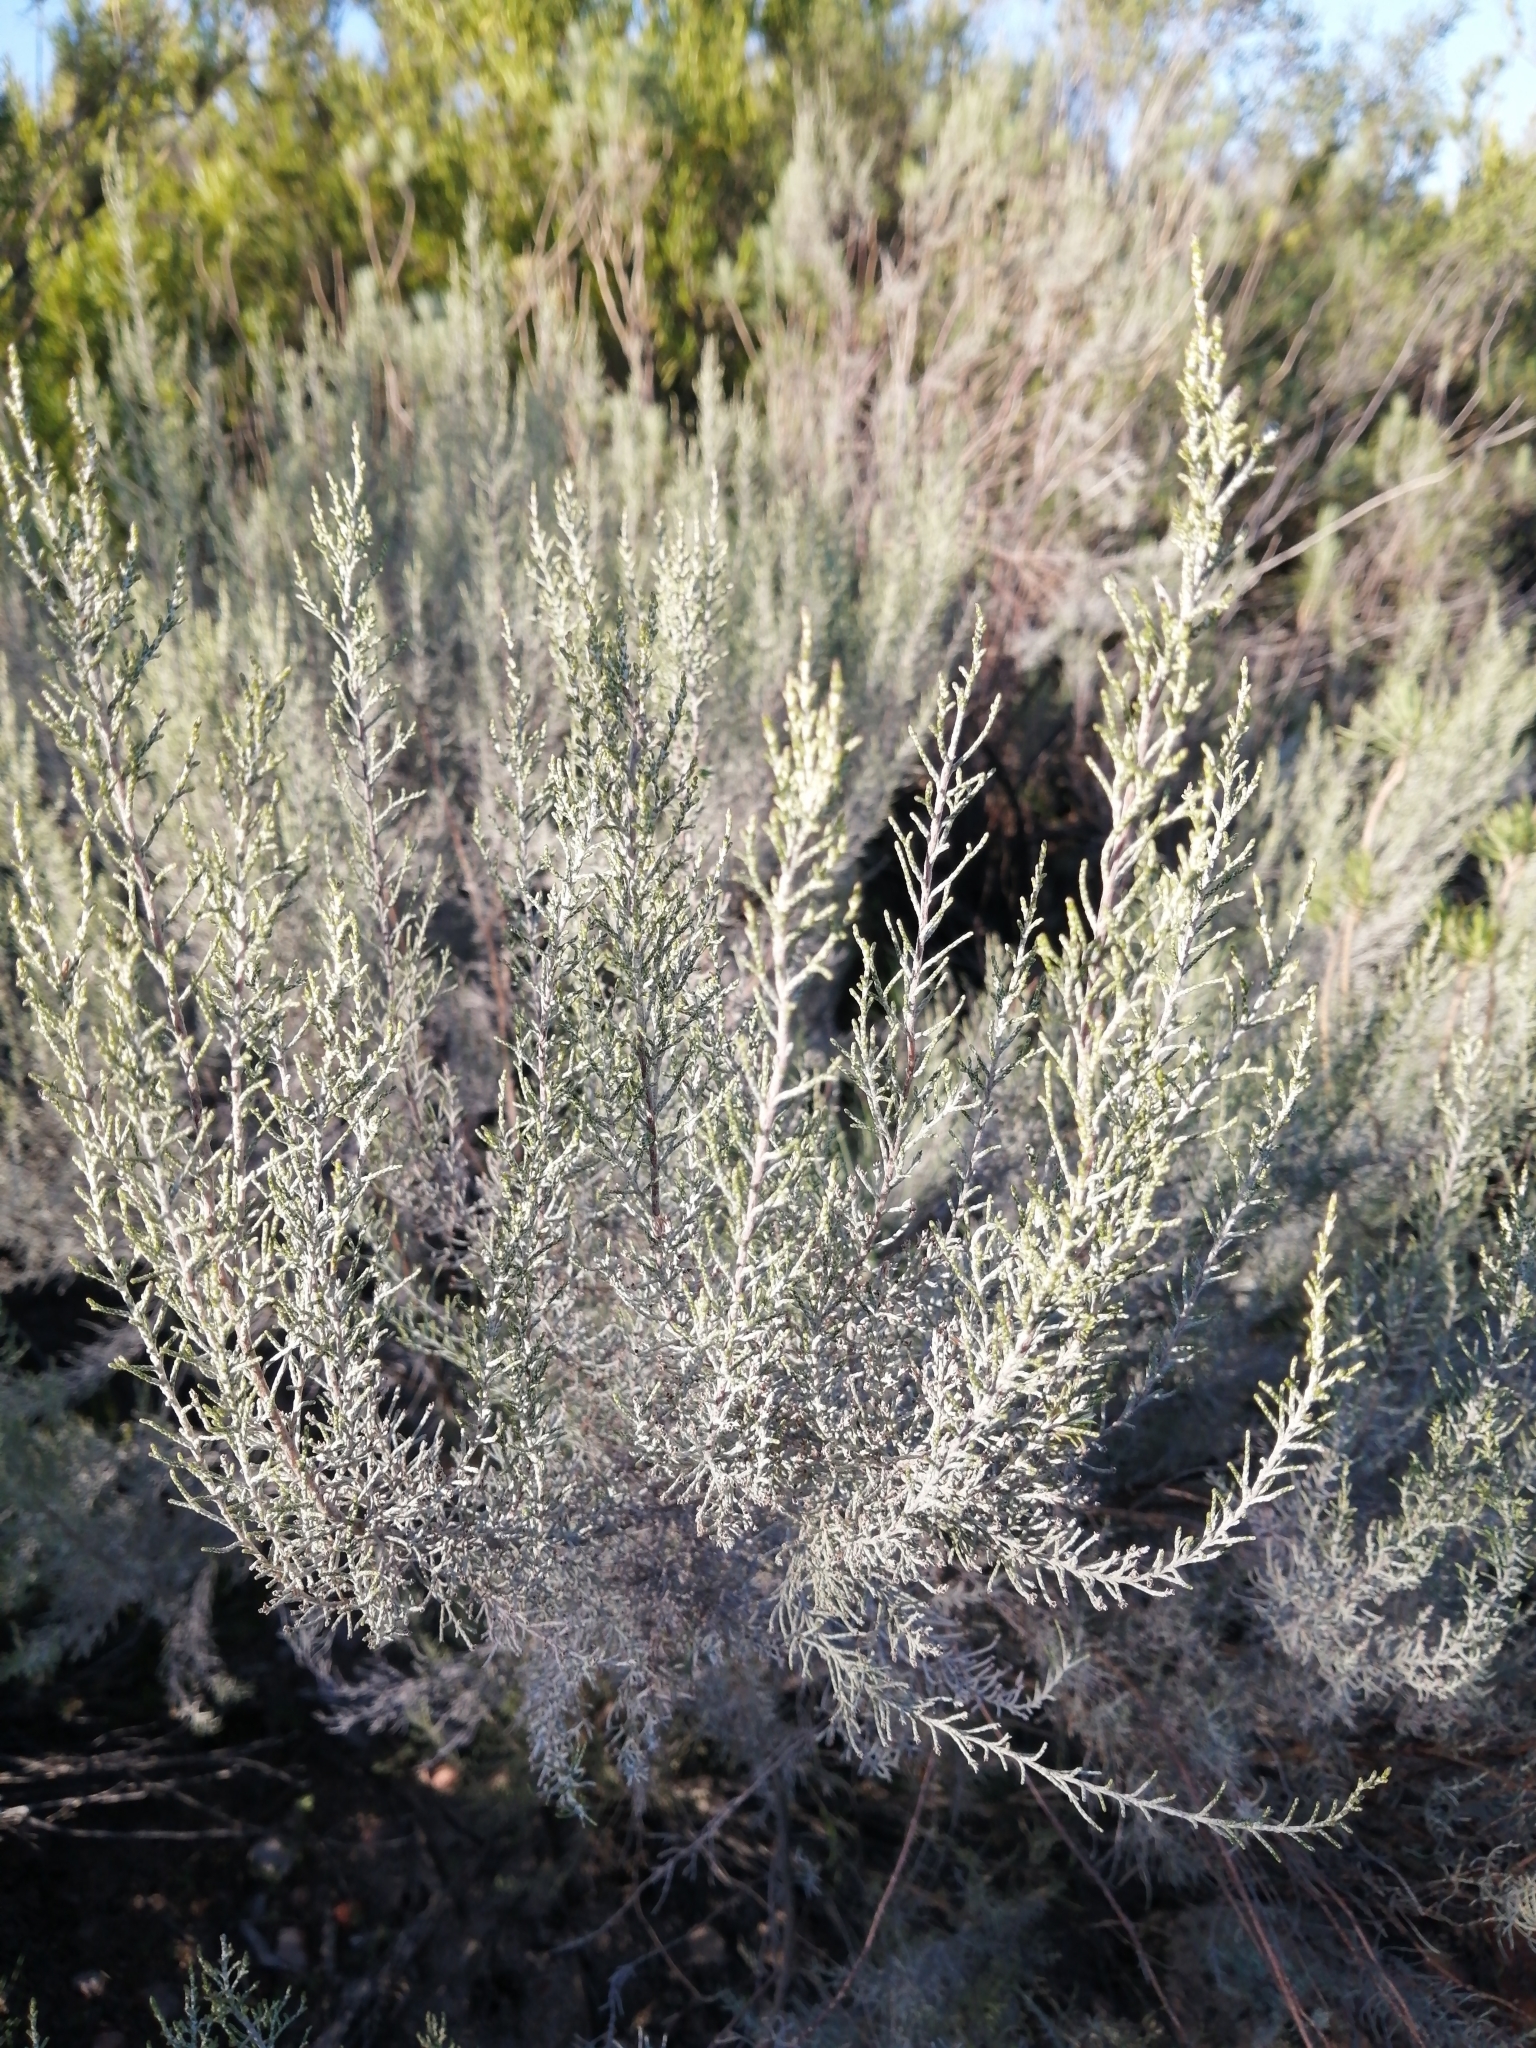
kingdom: Plantae
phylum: Tracheophyta
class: Magnoliopsida
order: Asterales
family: Asteraceae
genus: Dicerothamnus
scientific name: Dicerothamnus rhinocerotis
